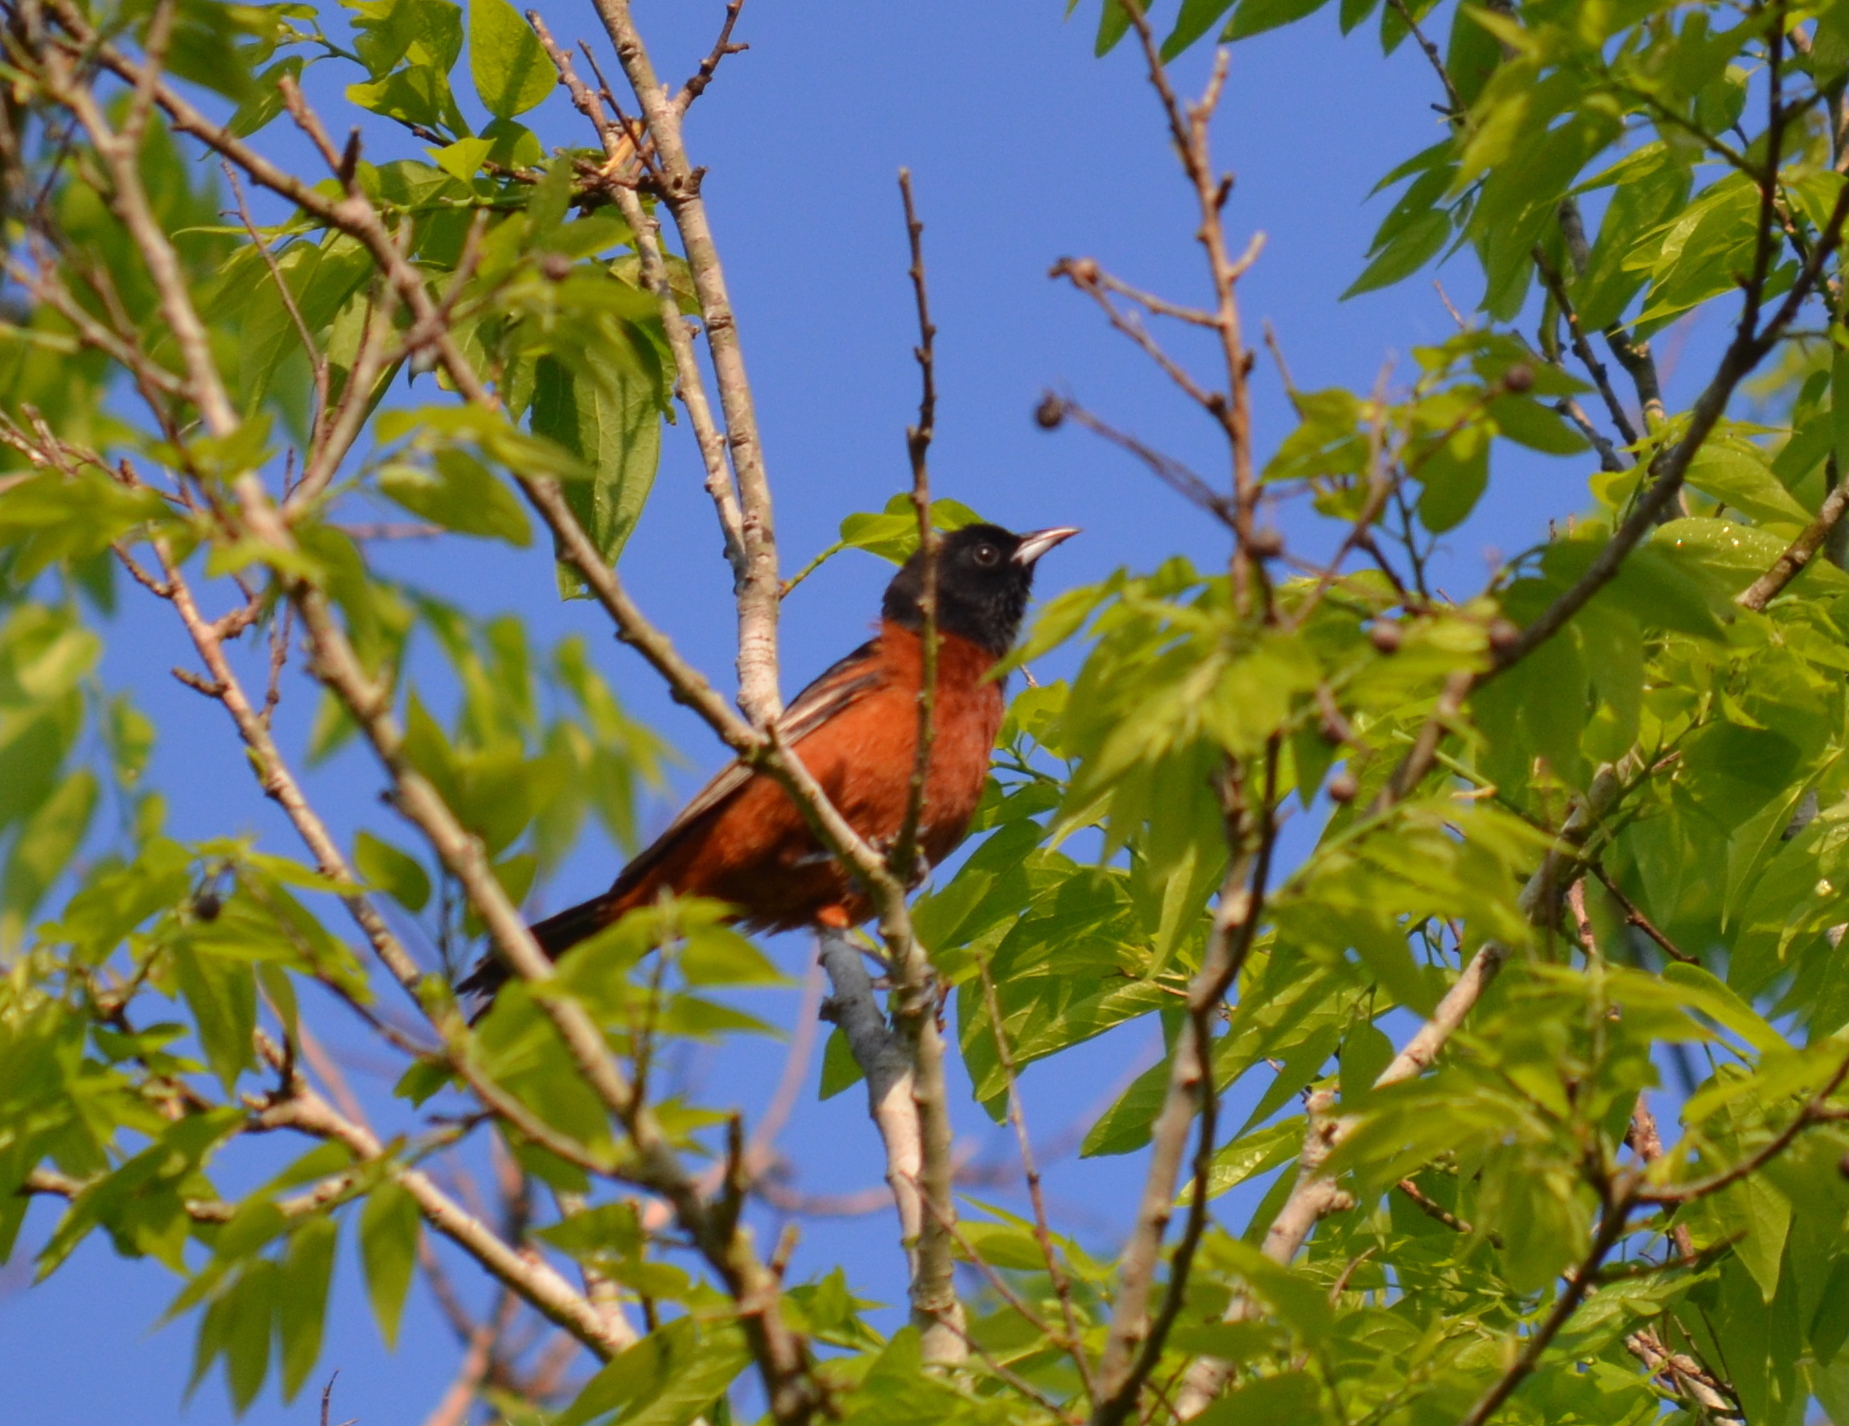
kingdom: Animalia
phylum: Chordata
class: Aves
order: Passeriformes
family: Icteridae
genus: Icterus
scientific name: Icterus spurius
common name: Orchard oriole
